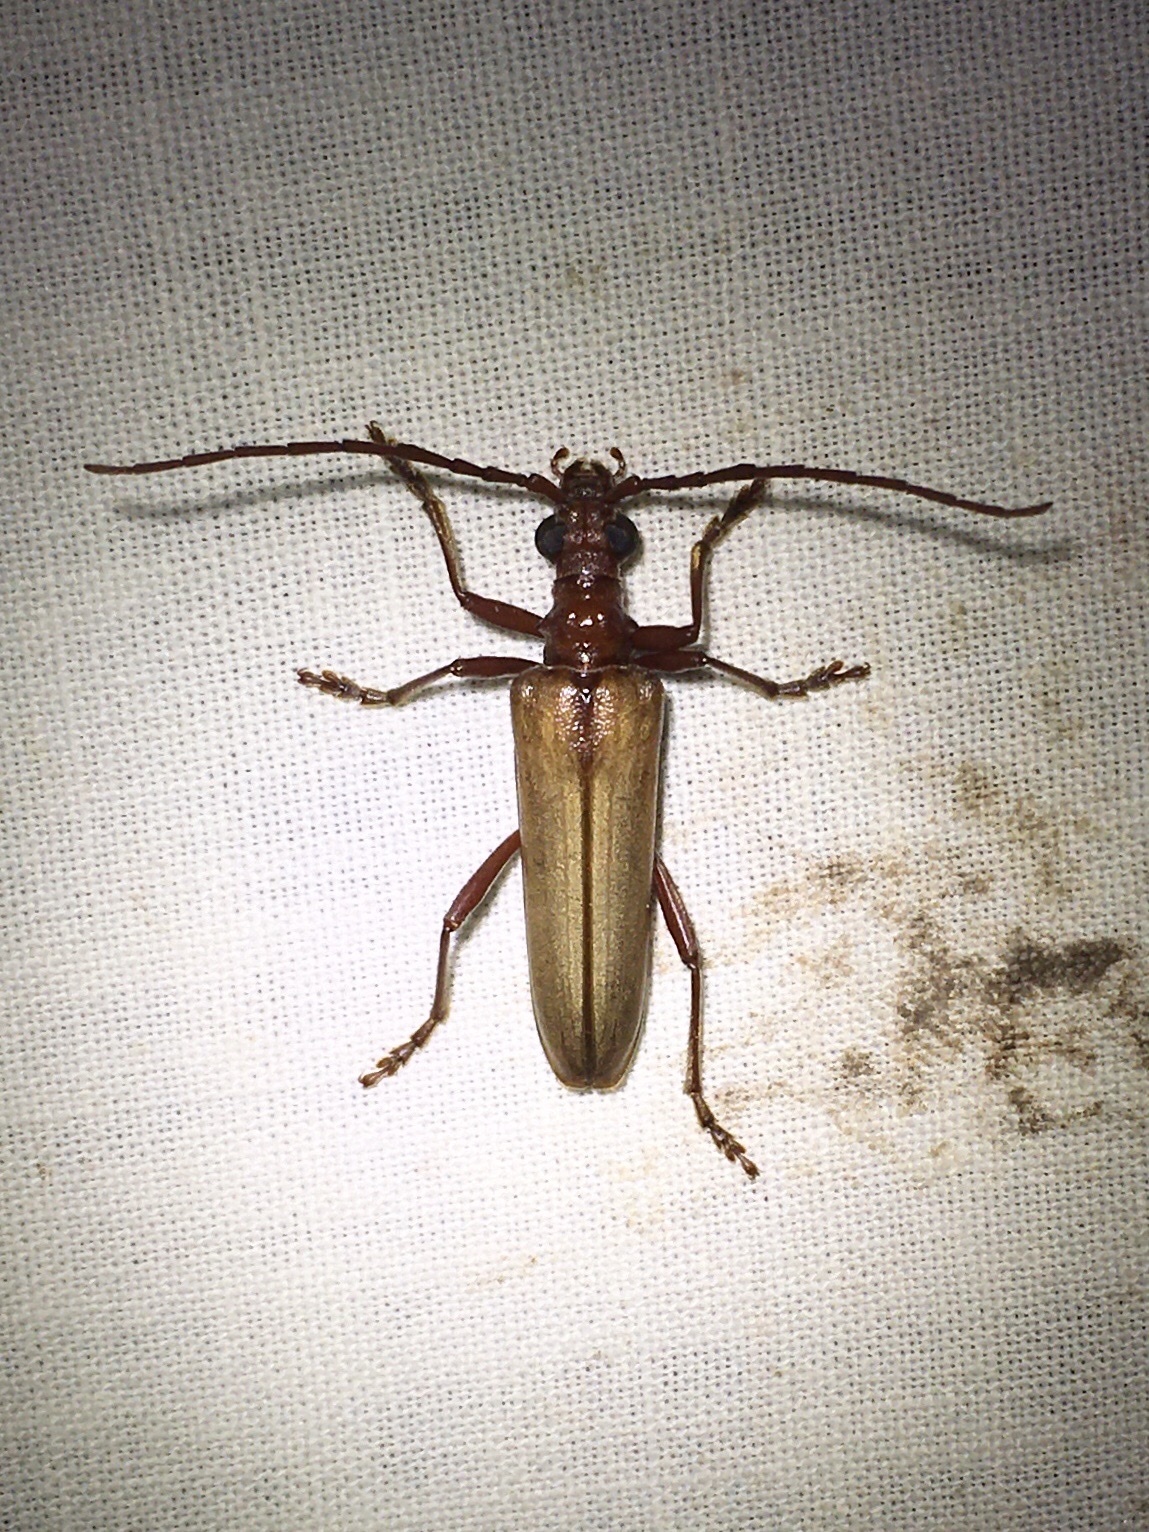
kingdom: Animalia
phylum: Arthropoda
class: Insecta
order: Coleoptera
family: Cerambycidae
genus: Centrodera
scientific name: Centrodera decolorata
